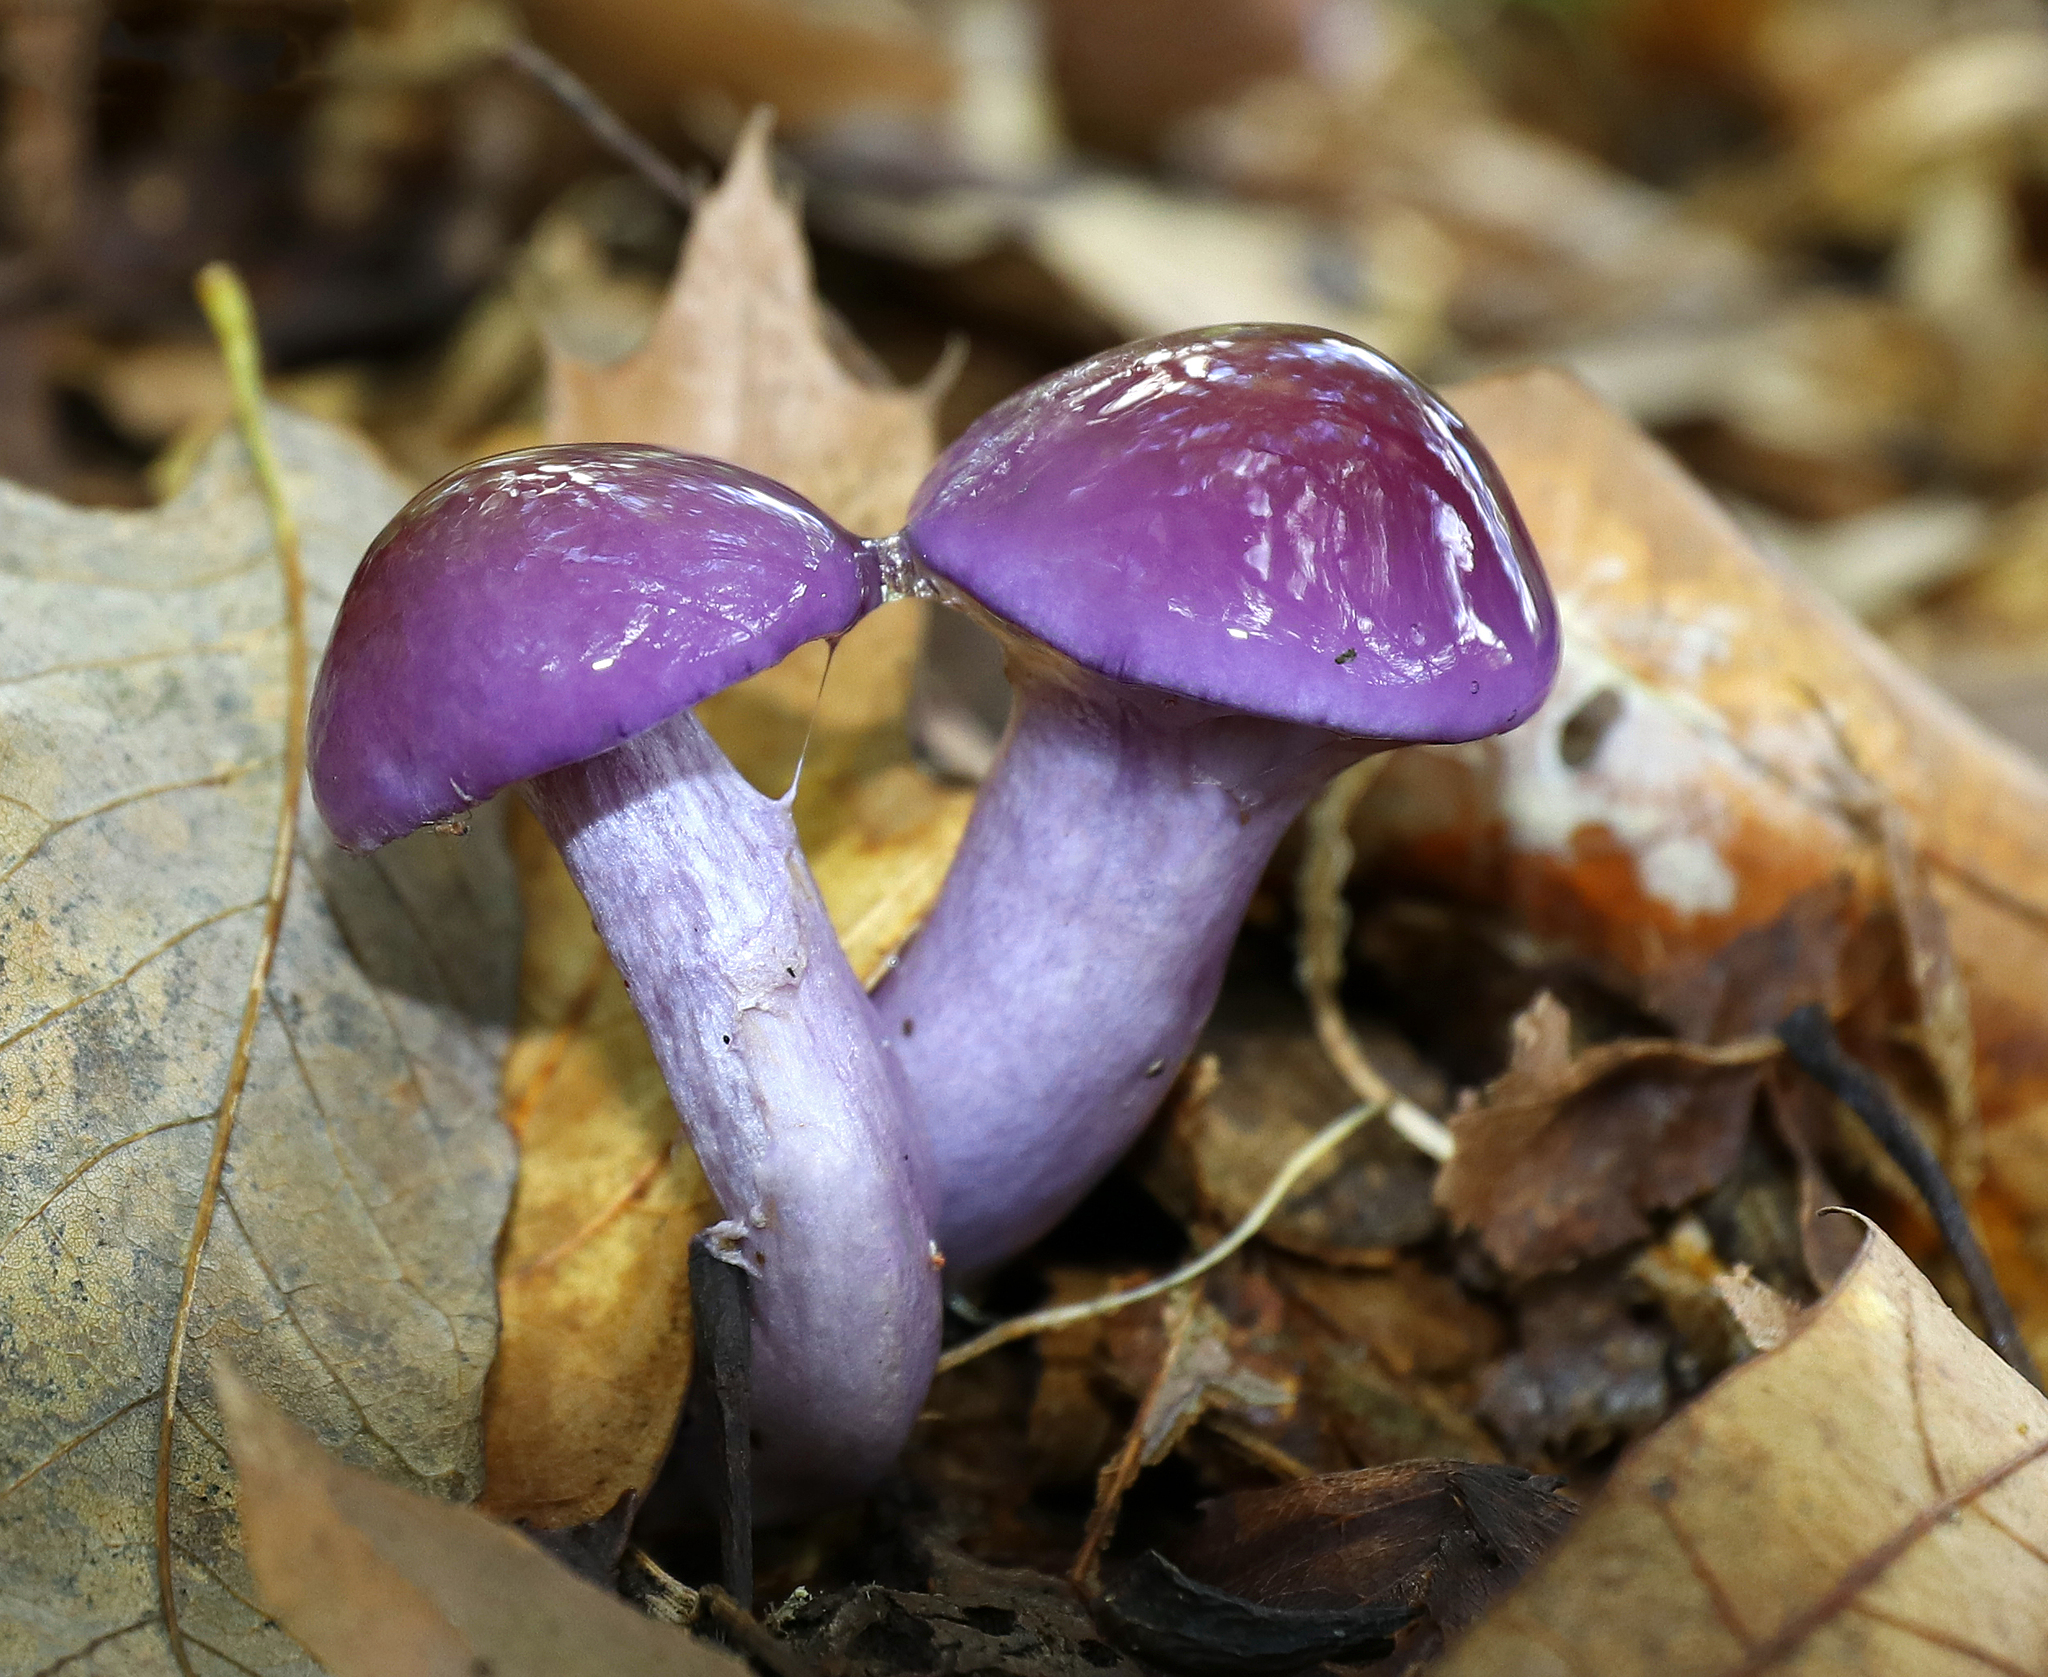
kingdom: Fungi
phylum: Basidiomycota
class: Agaricomycetes
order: Agaricales
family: Cortinariaceae
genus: Cortinarius
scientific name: Cortinarius iodes
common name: Viscid violet cort
